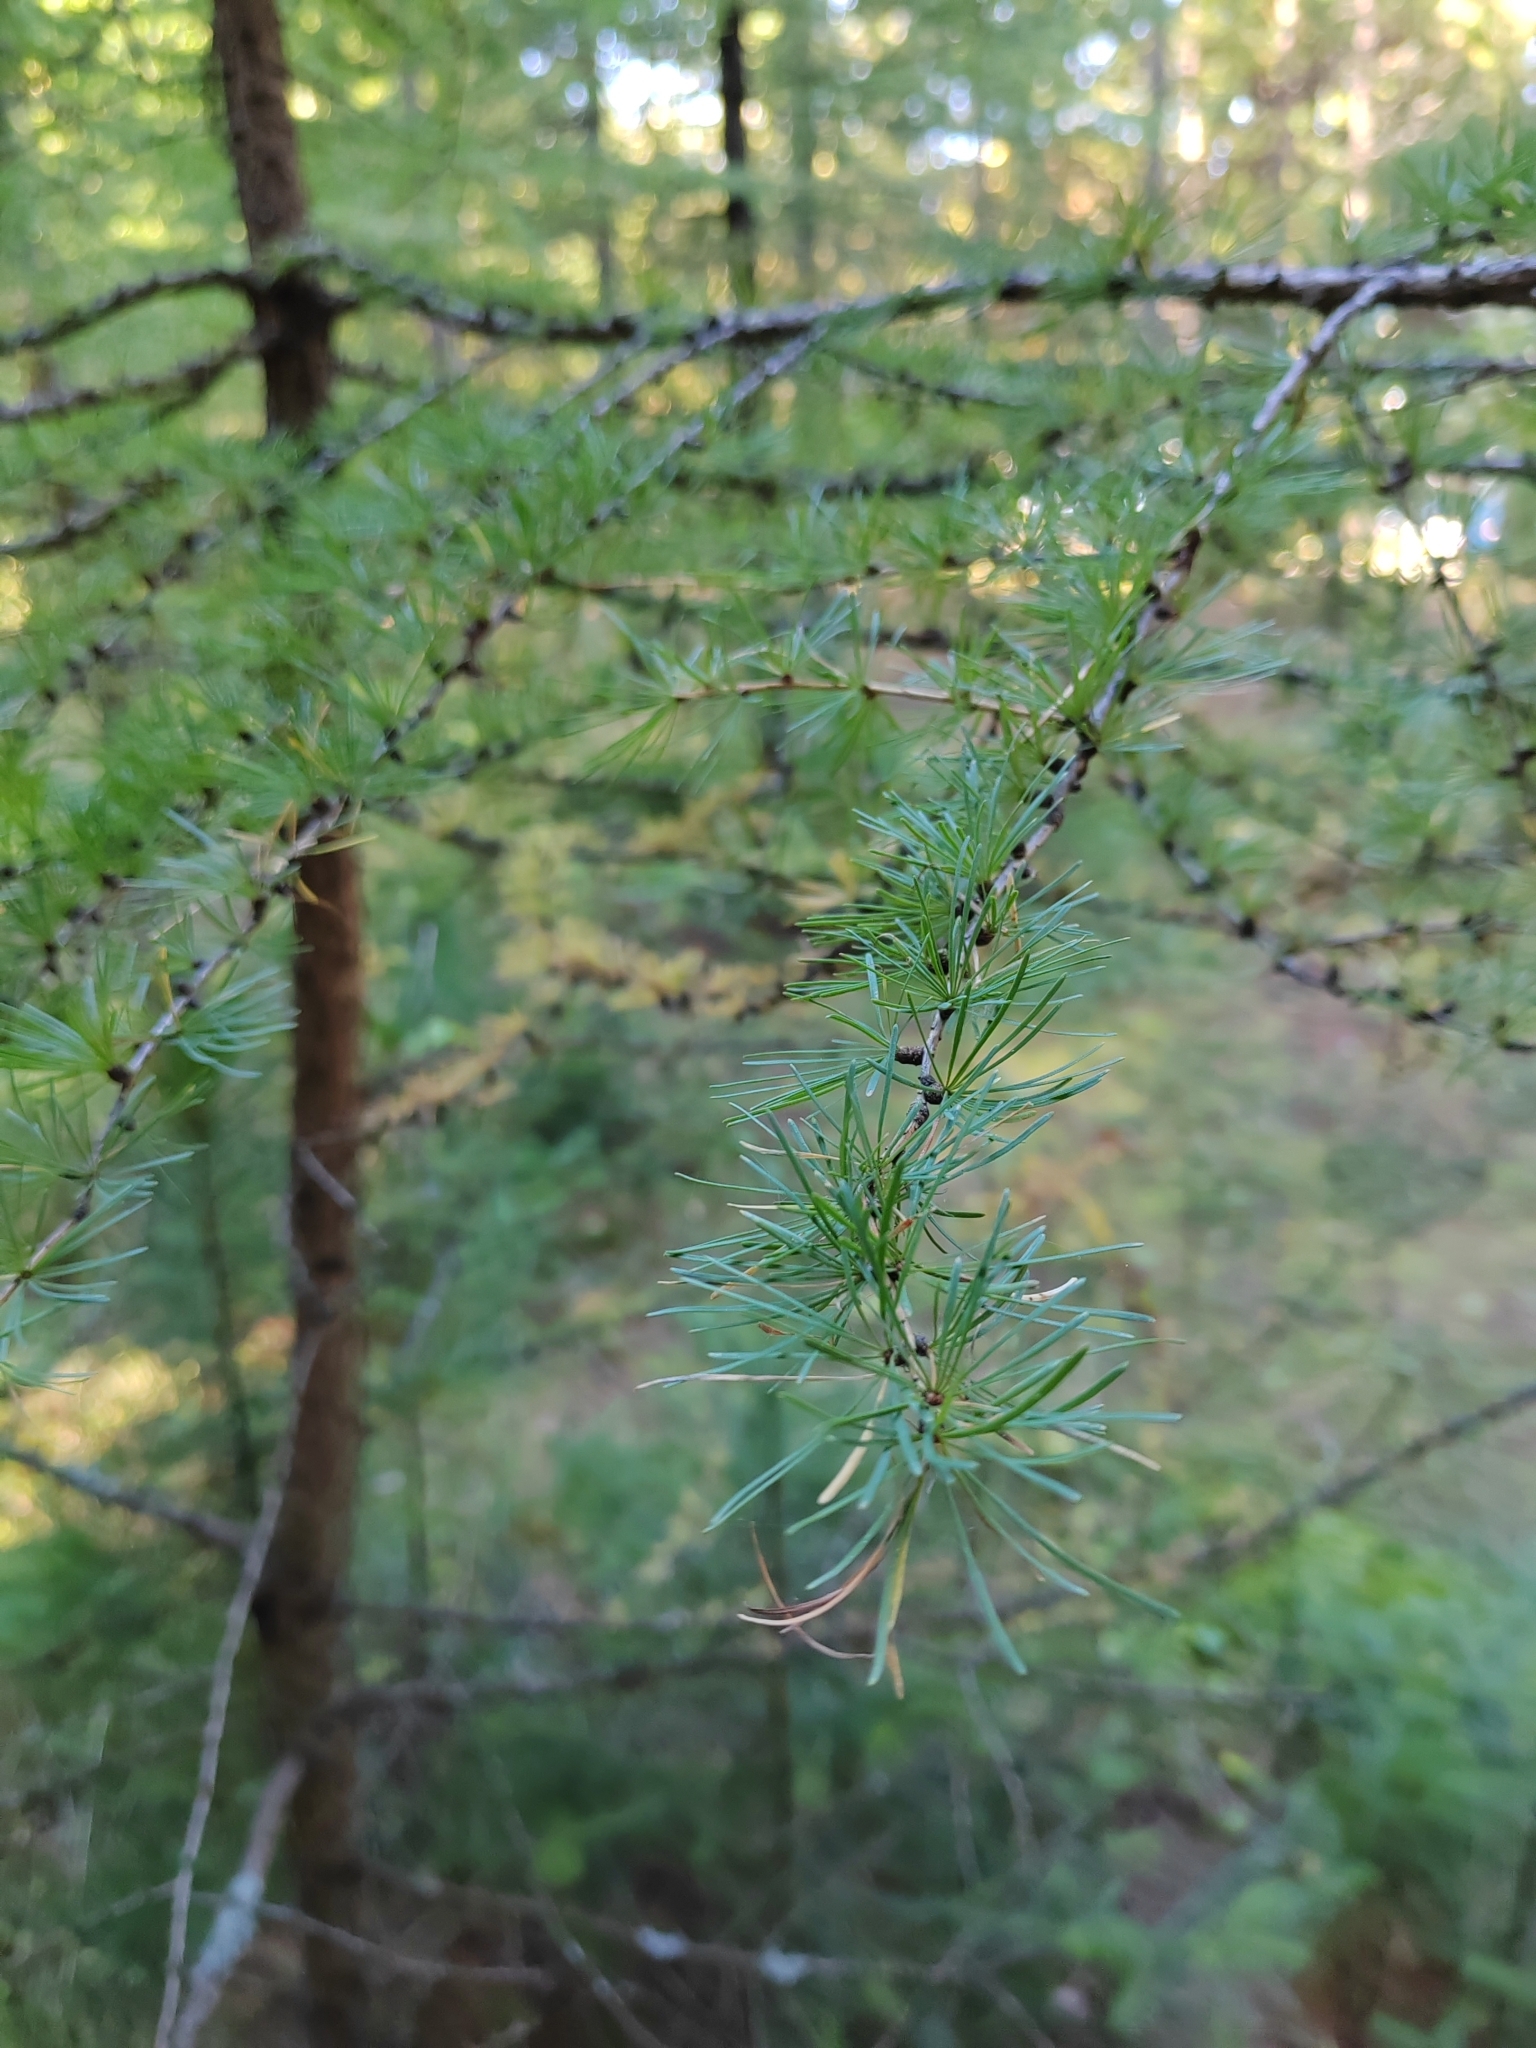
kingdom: Plantae
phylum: Tracheophyta
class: Pinopsida
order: Pinales
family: Pinaceae
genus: Larix
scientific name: Larix sibirica
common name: Siberian larch
